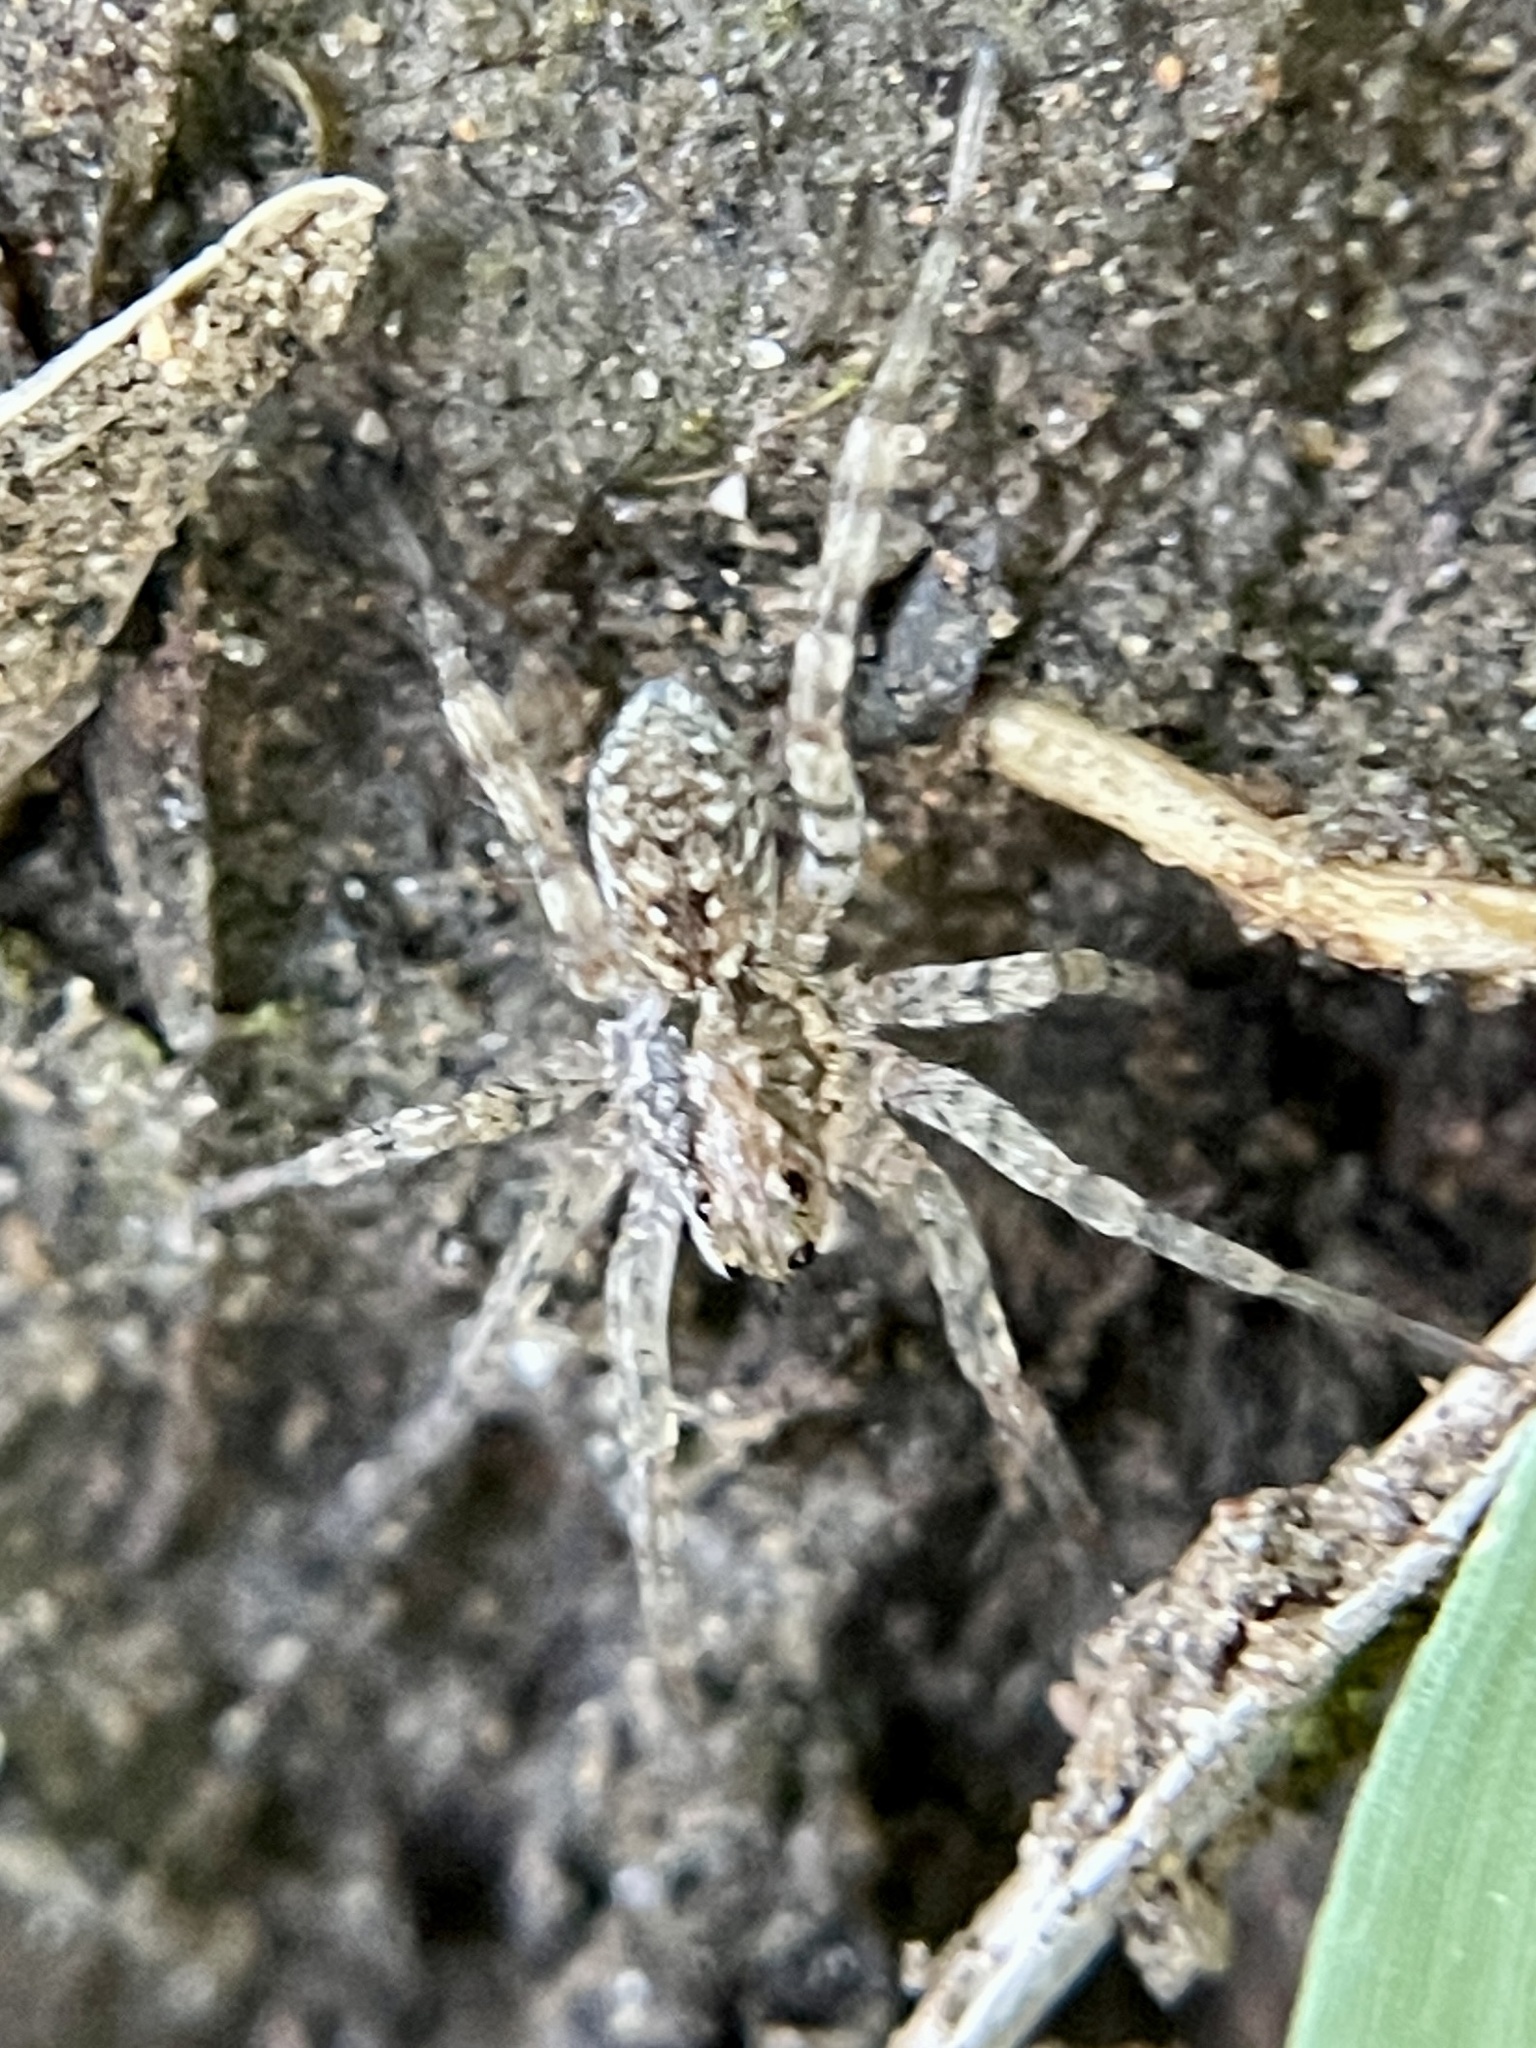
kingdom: Animalia
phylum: Arthropoda
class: Arachnida
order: Araneae
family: Lycosidae
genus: Hogna
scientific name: Hogna antelucana
